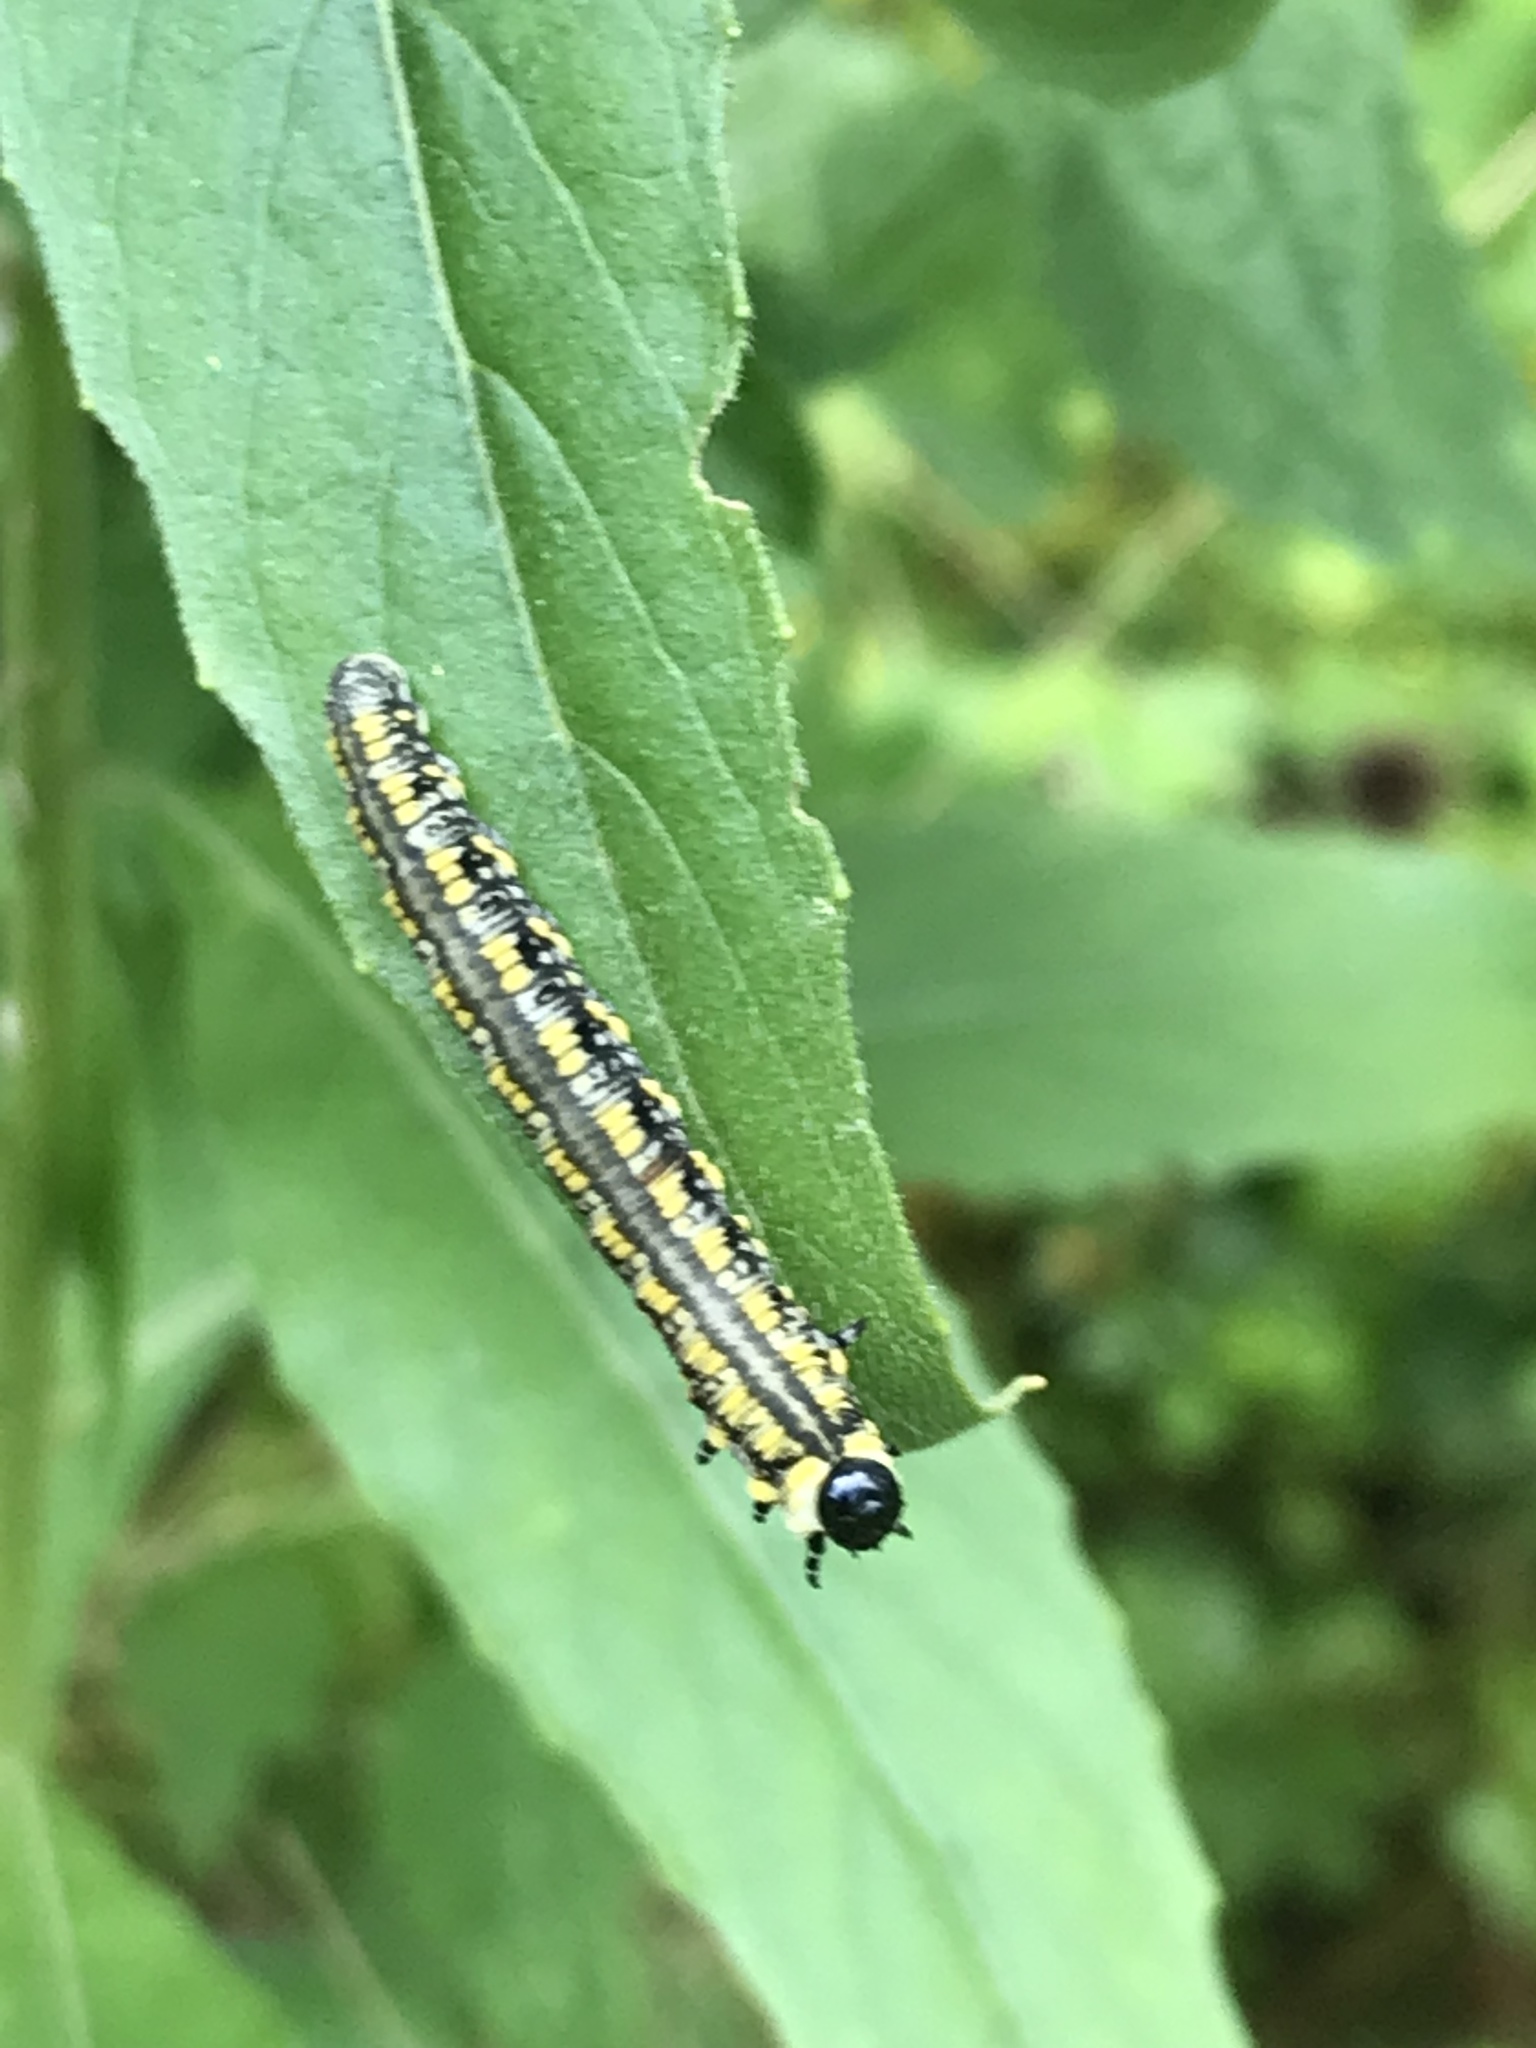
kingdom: Animalia
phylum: Arthropoda
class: Insecta
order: Hymenoptera
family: Diprionidae
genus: Diprion
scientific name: Diprion similis
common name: Pine sawfly
